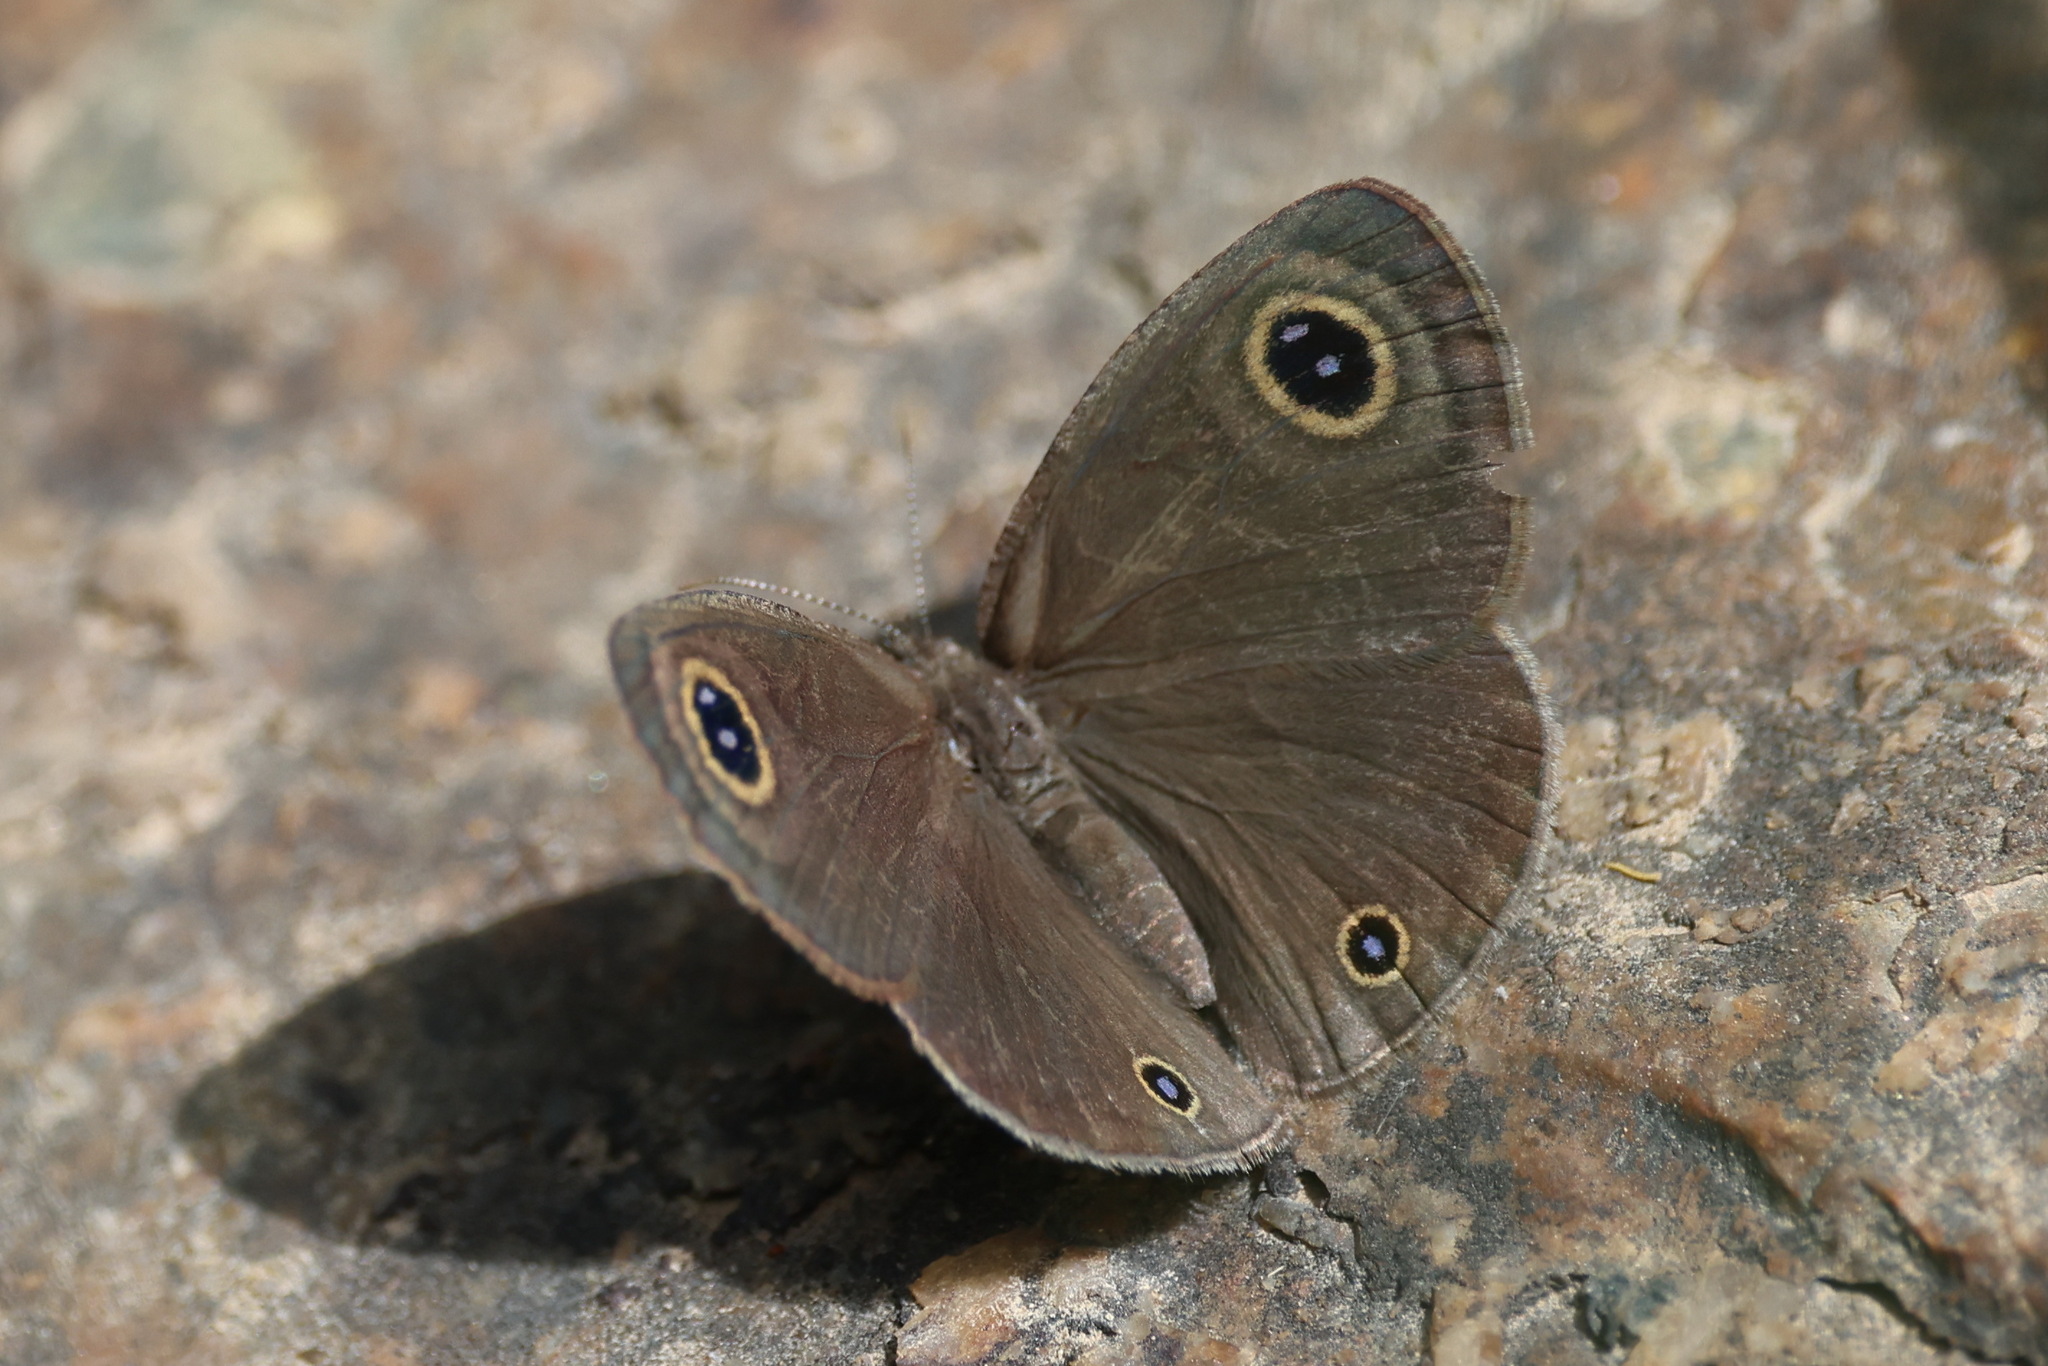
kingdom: Animalia
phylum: Arthropoda
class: Insecta
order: Lepidoptera
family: Nymphalidae
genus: Ypthima
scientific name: Ypthima asterope
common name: African ringlet
